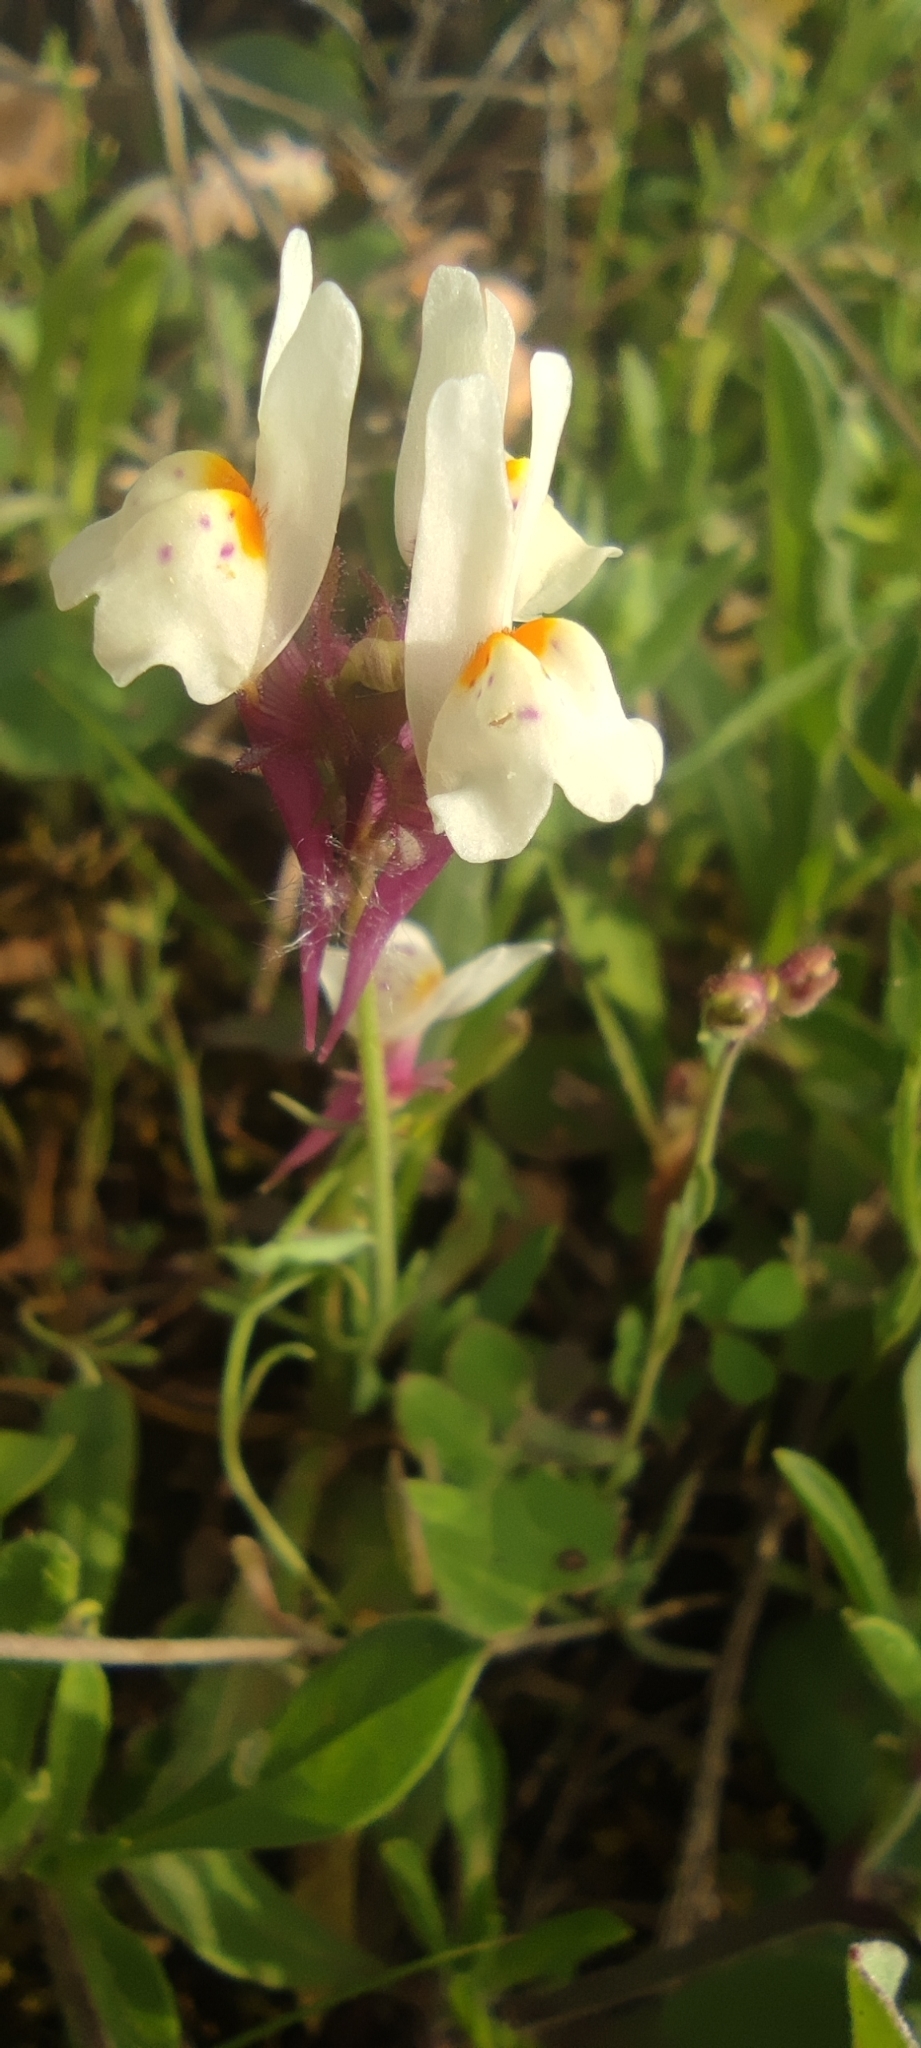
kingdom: Plantae
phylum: Tracheophyta
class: Magnoliopsida
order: Lamiales
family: Plantaginaceae
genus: Linaria
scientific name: Linaria amethystea
